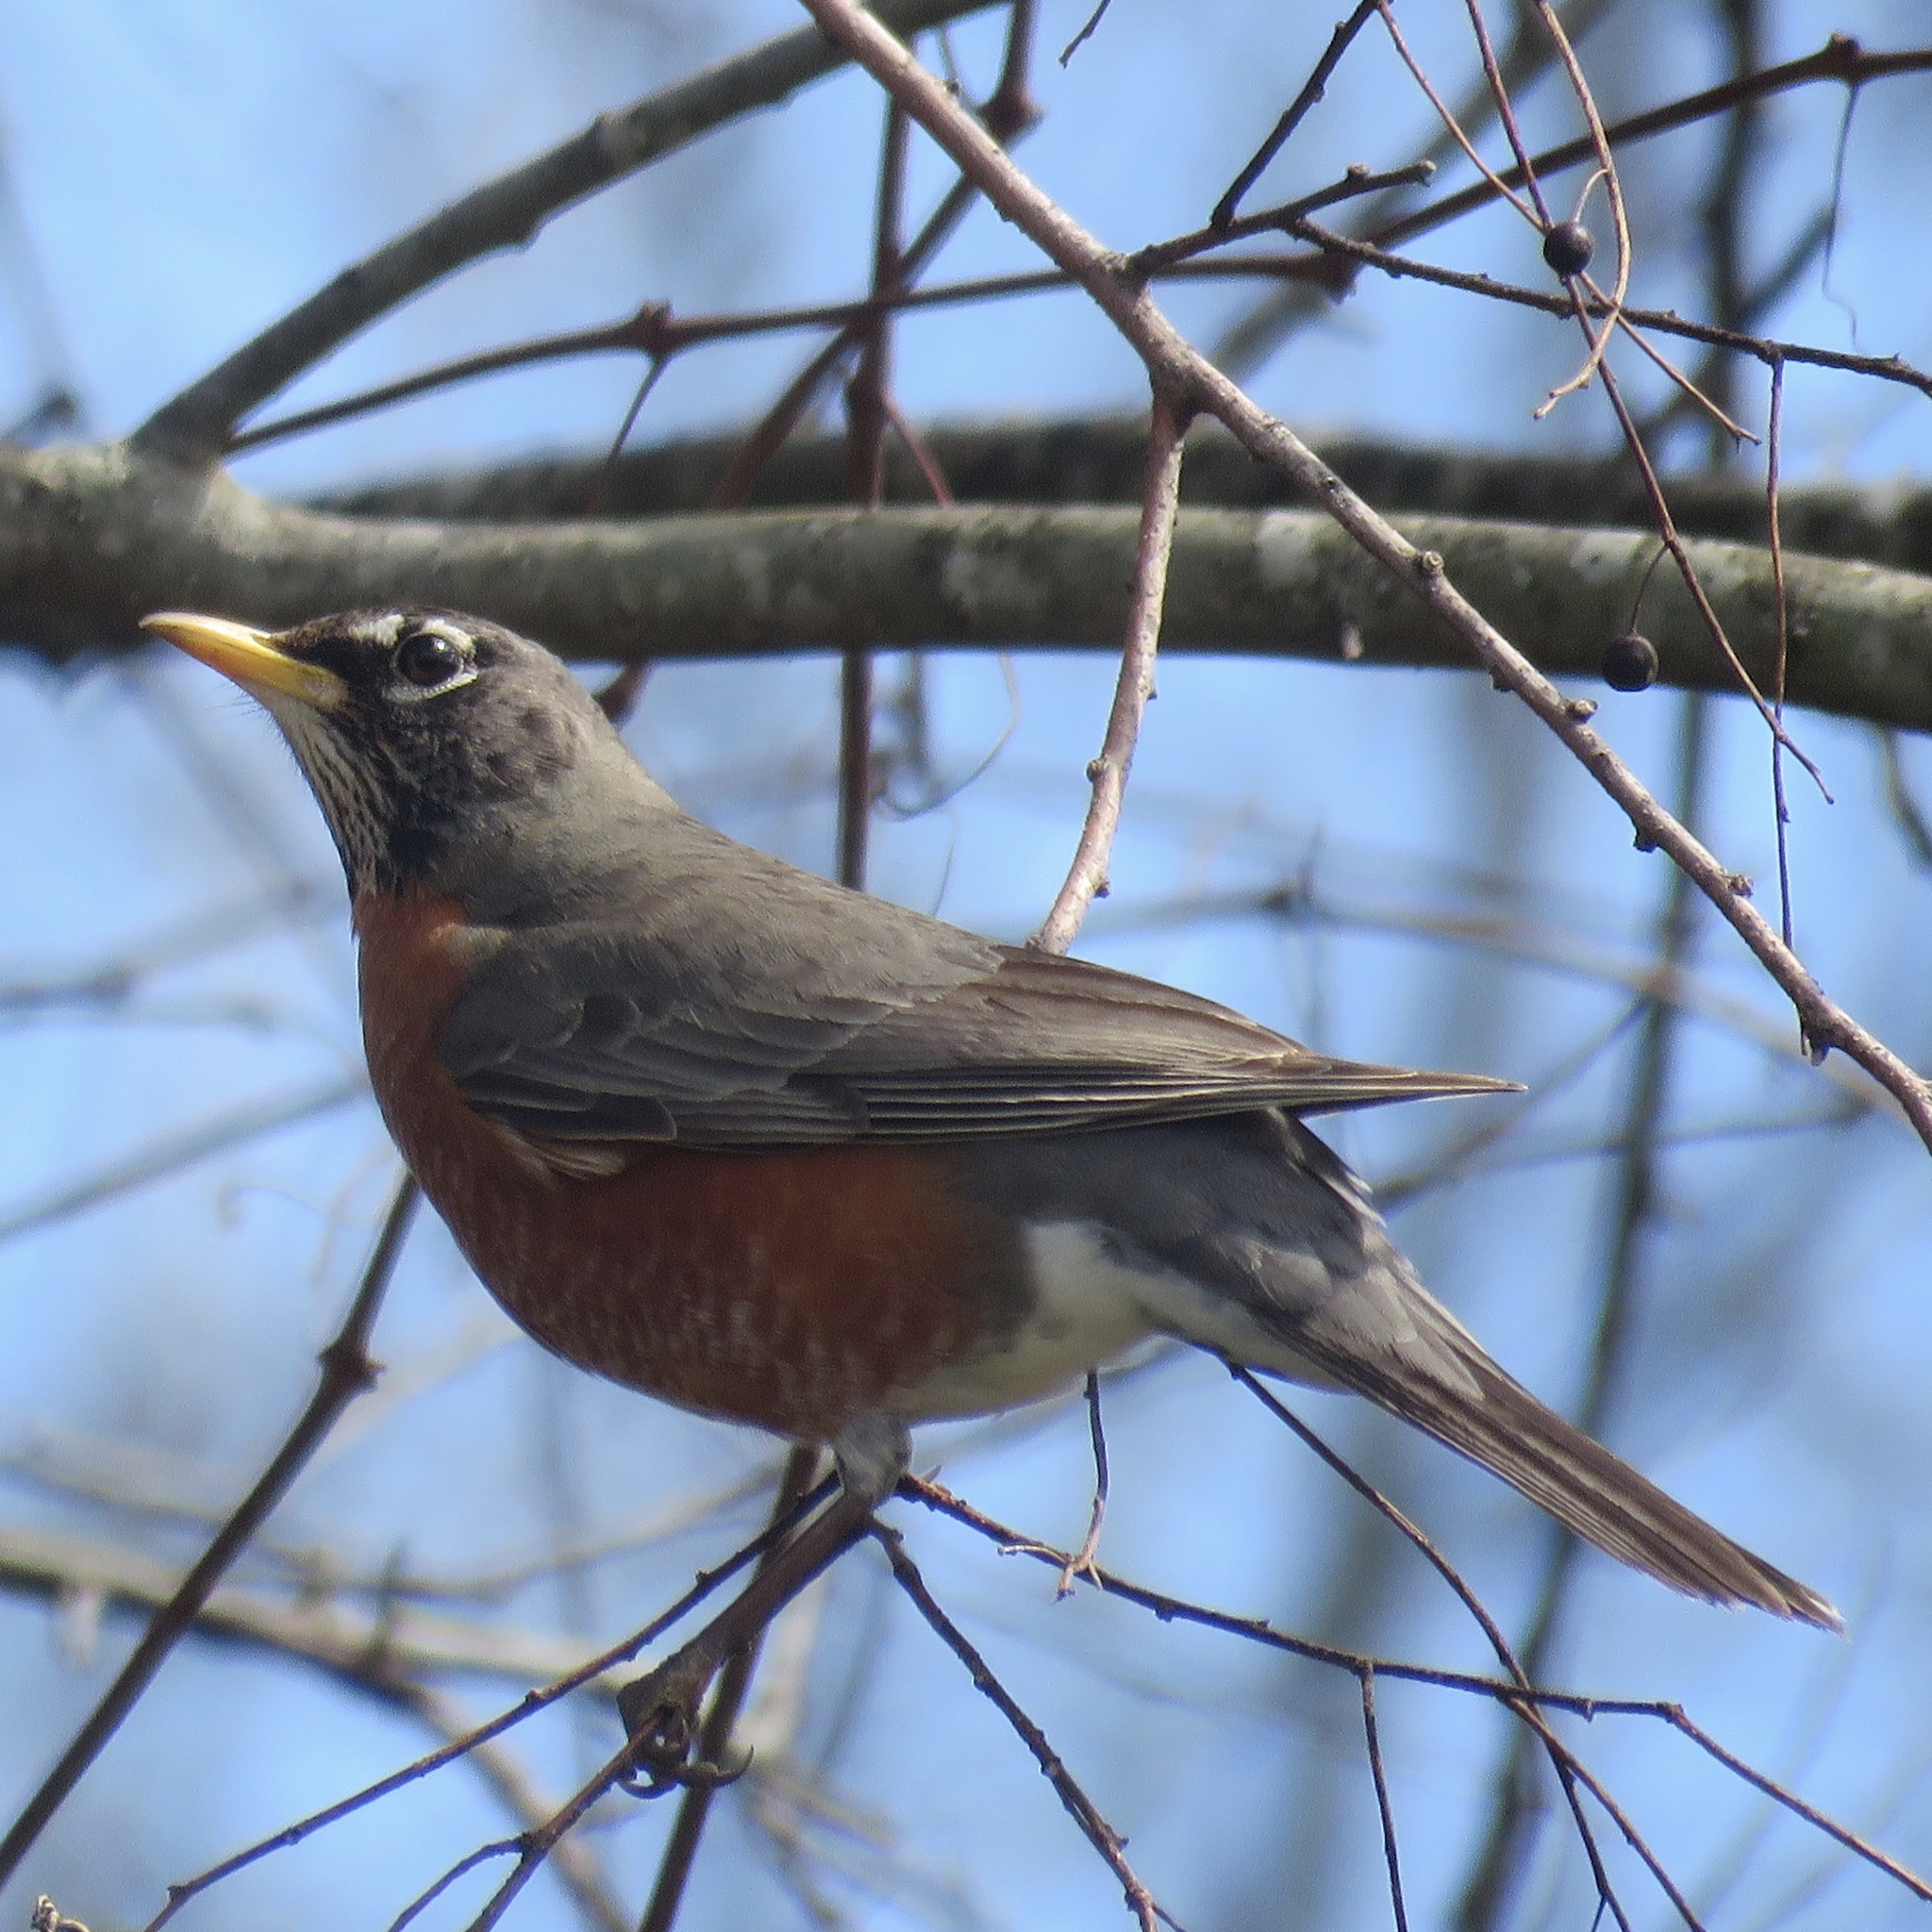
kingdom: Animalia
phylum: Chordata
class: Aves
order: Passeriformes
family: Turdidae
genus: Turdus
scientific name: Turdus migratorius
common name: American robin
